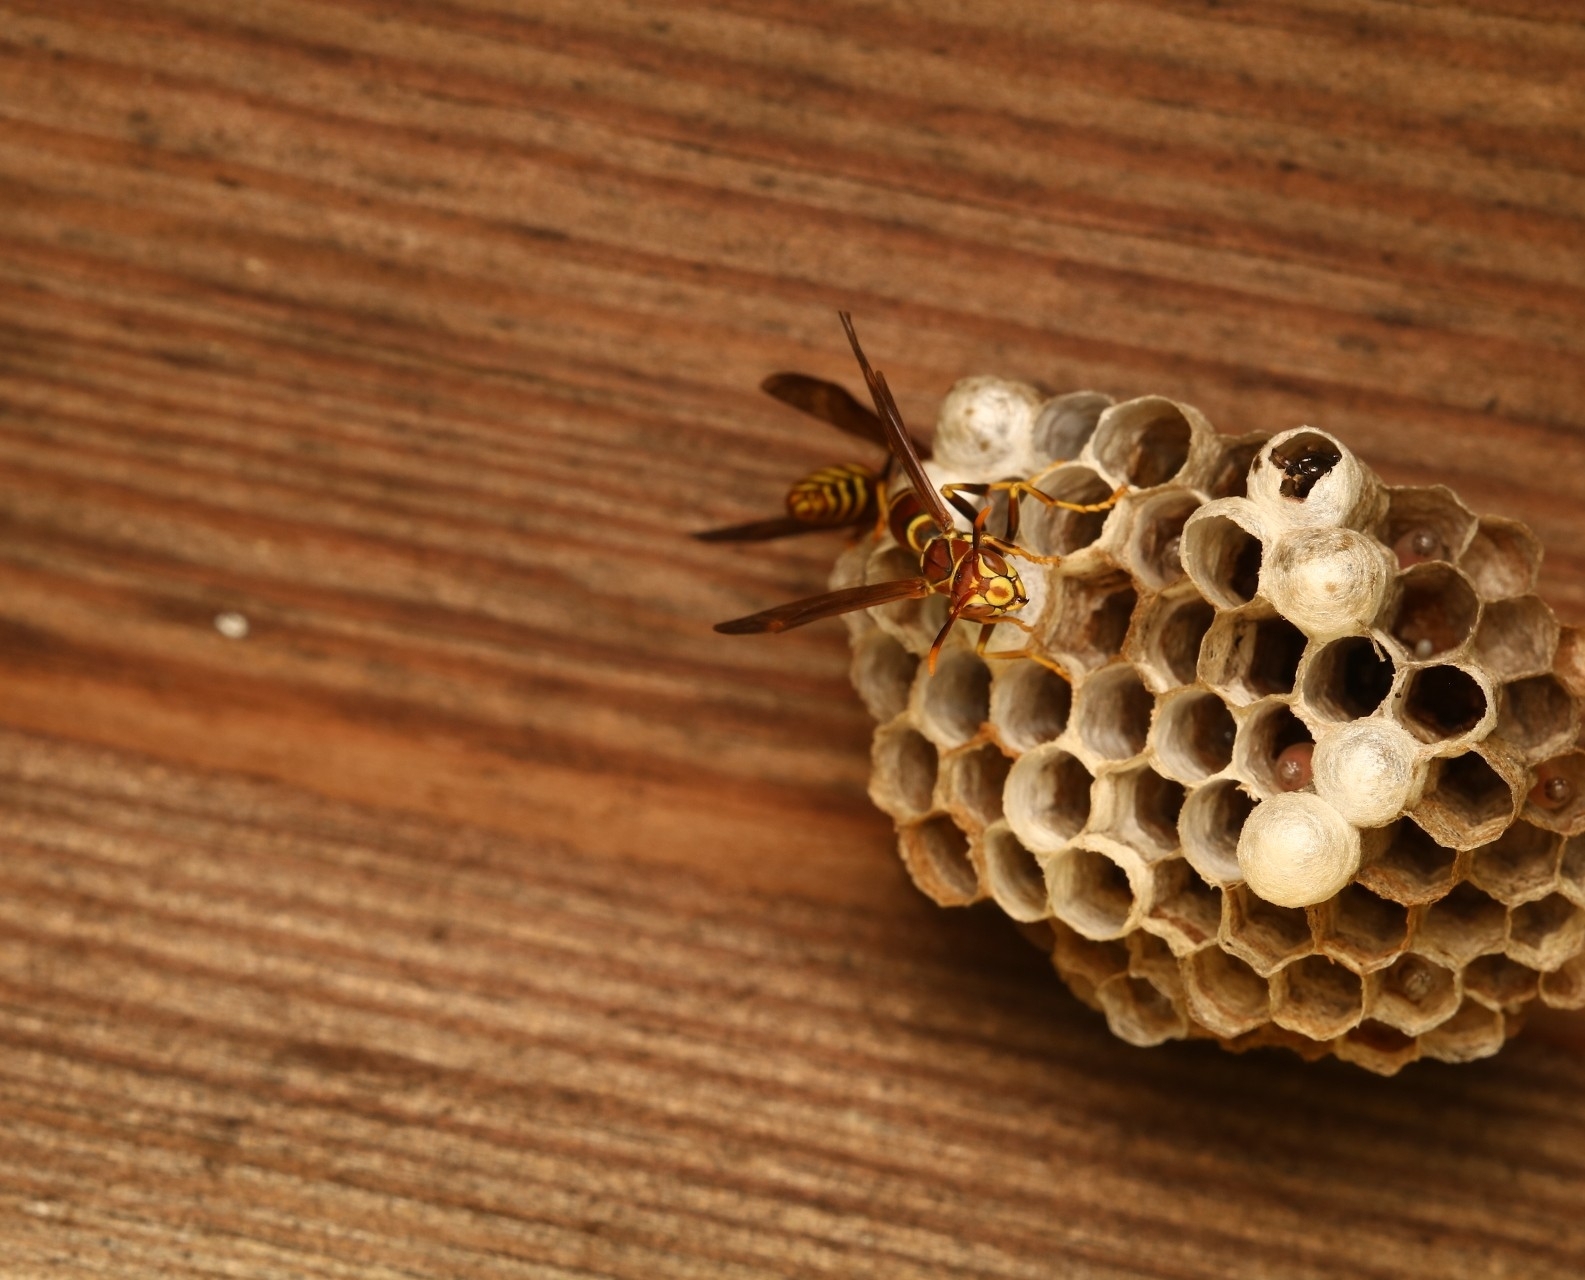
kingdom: Animalia
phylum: Arthropoda
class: Insecta
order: Hymenoptera
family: Eumenidae
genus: Polistes
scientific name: Polistes exclamans
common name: Paper wasp
